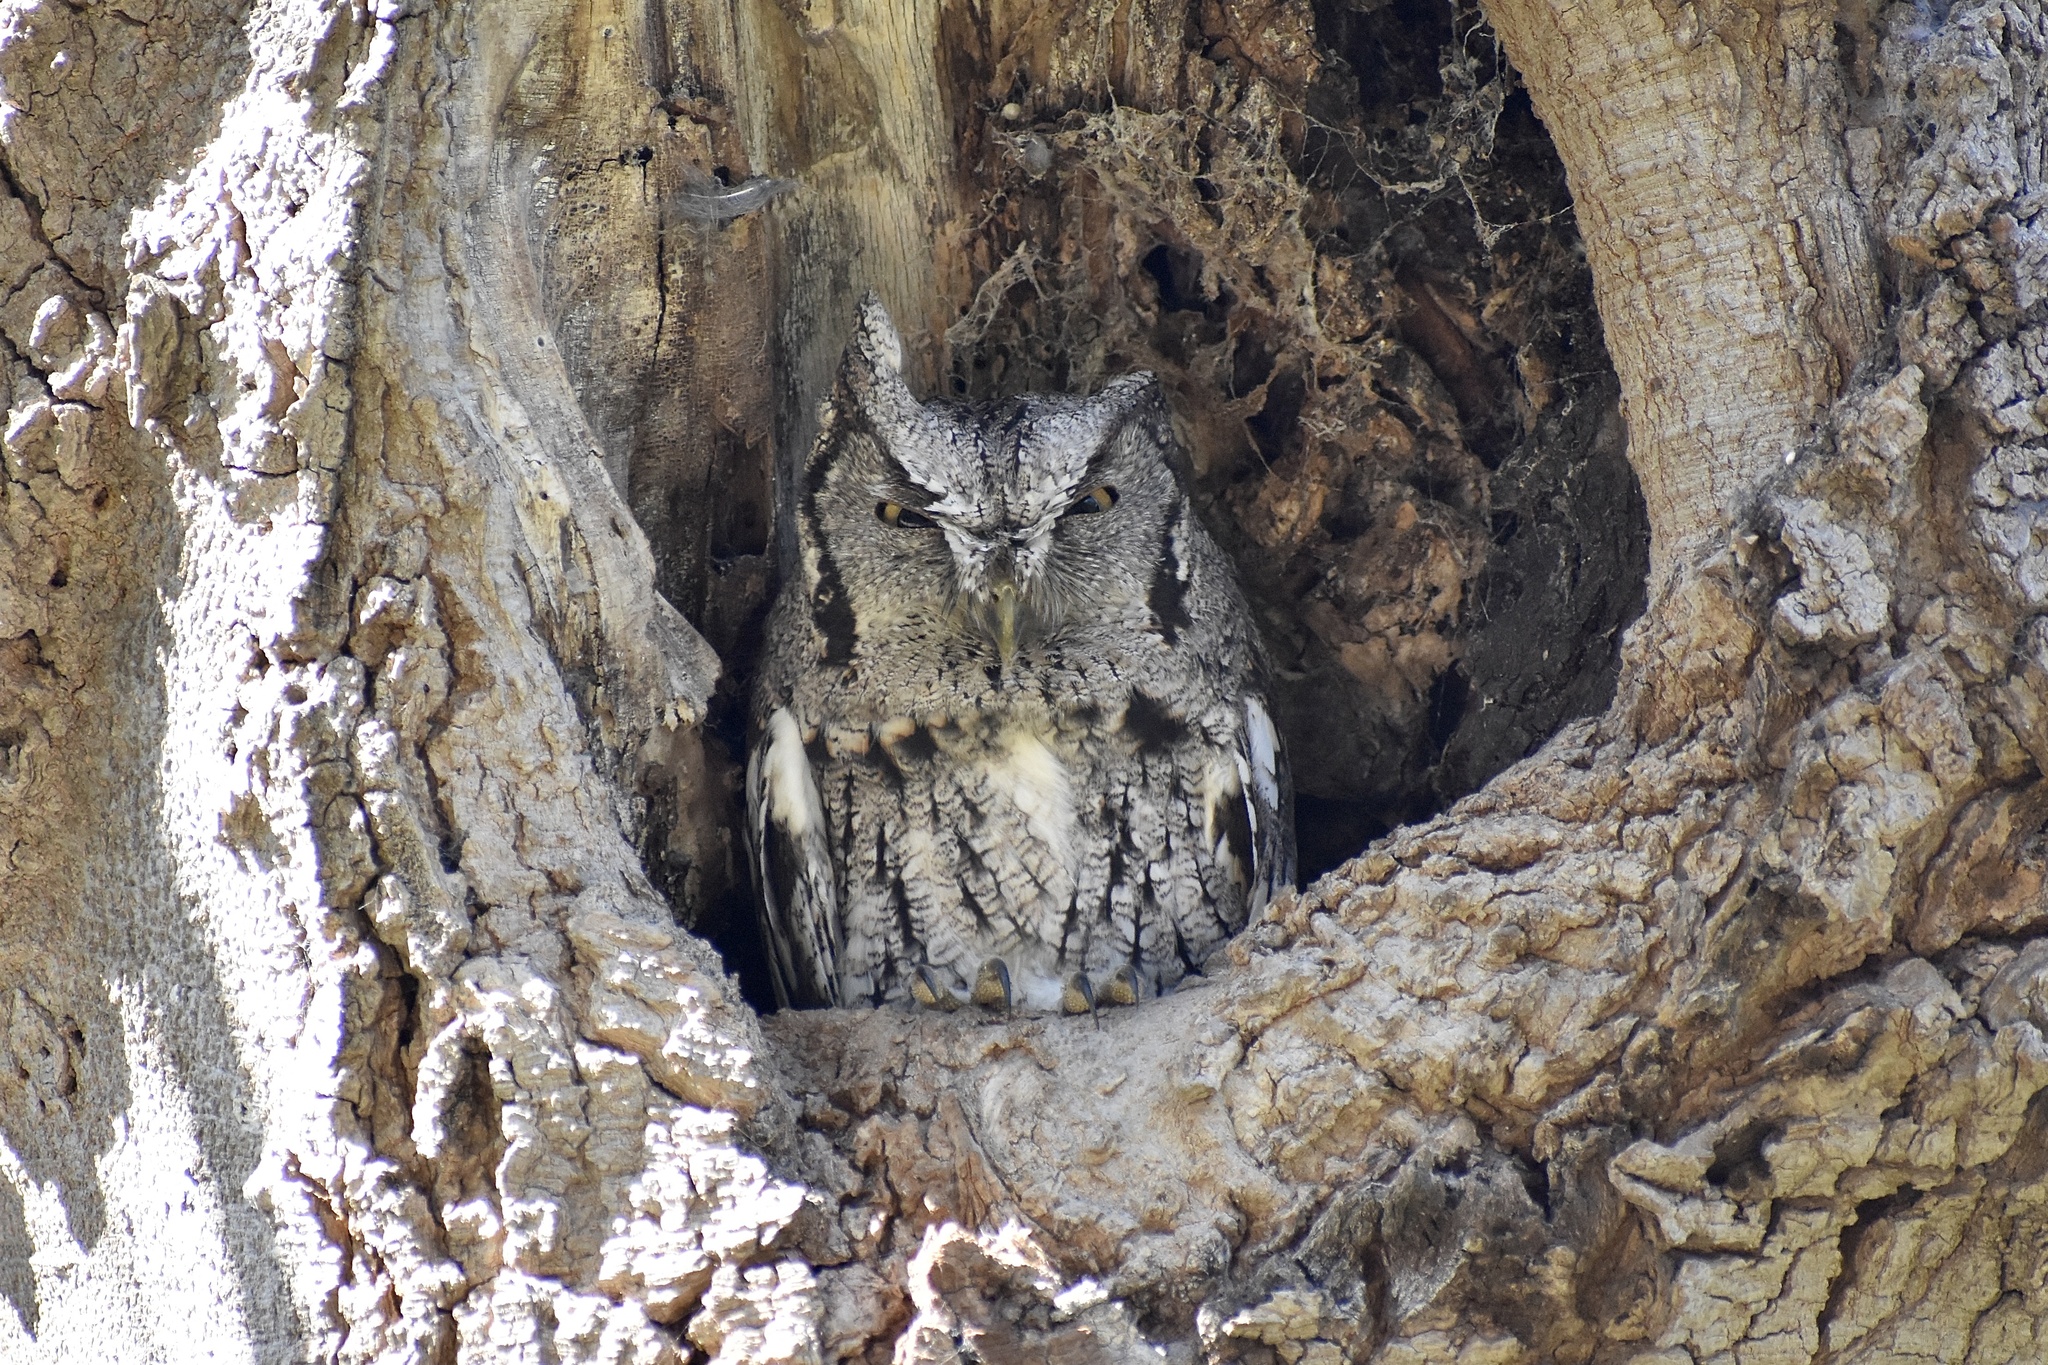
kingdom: Animalia
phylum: Chordata
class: Aves
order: Strigiformes
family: Strigidae
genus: Megascops
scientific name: Megascops asio
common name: Eastern screech-owl
